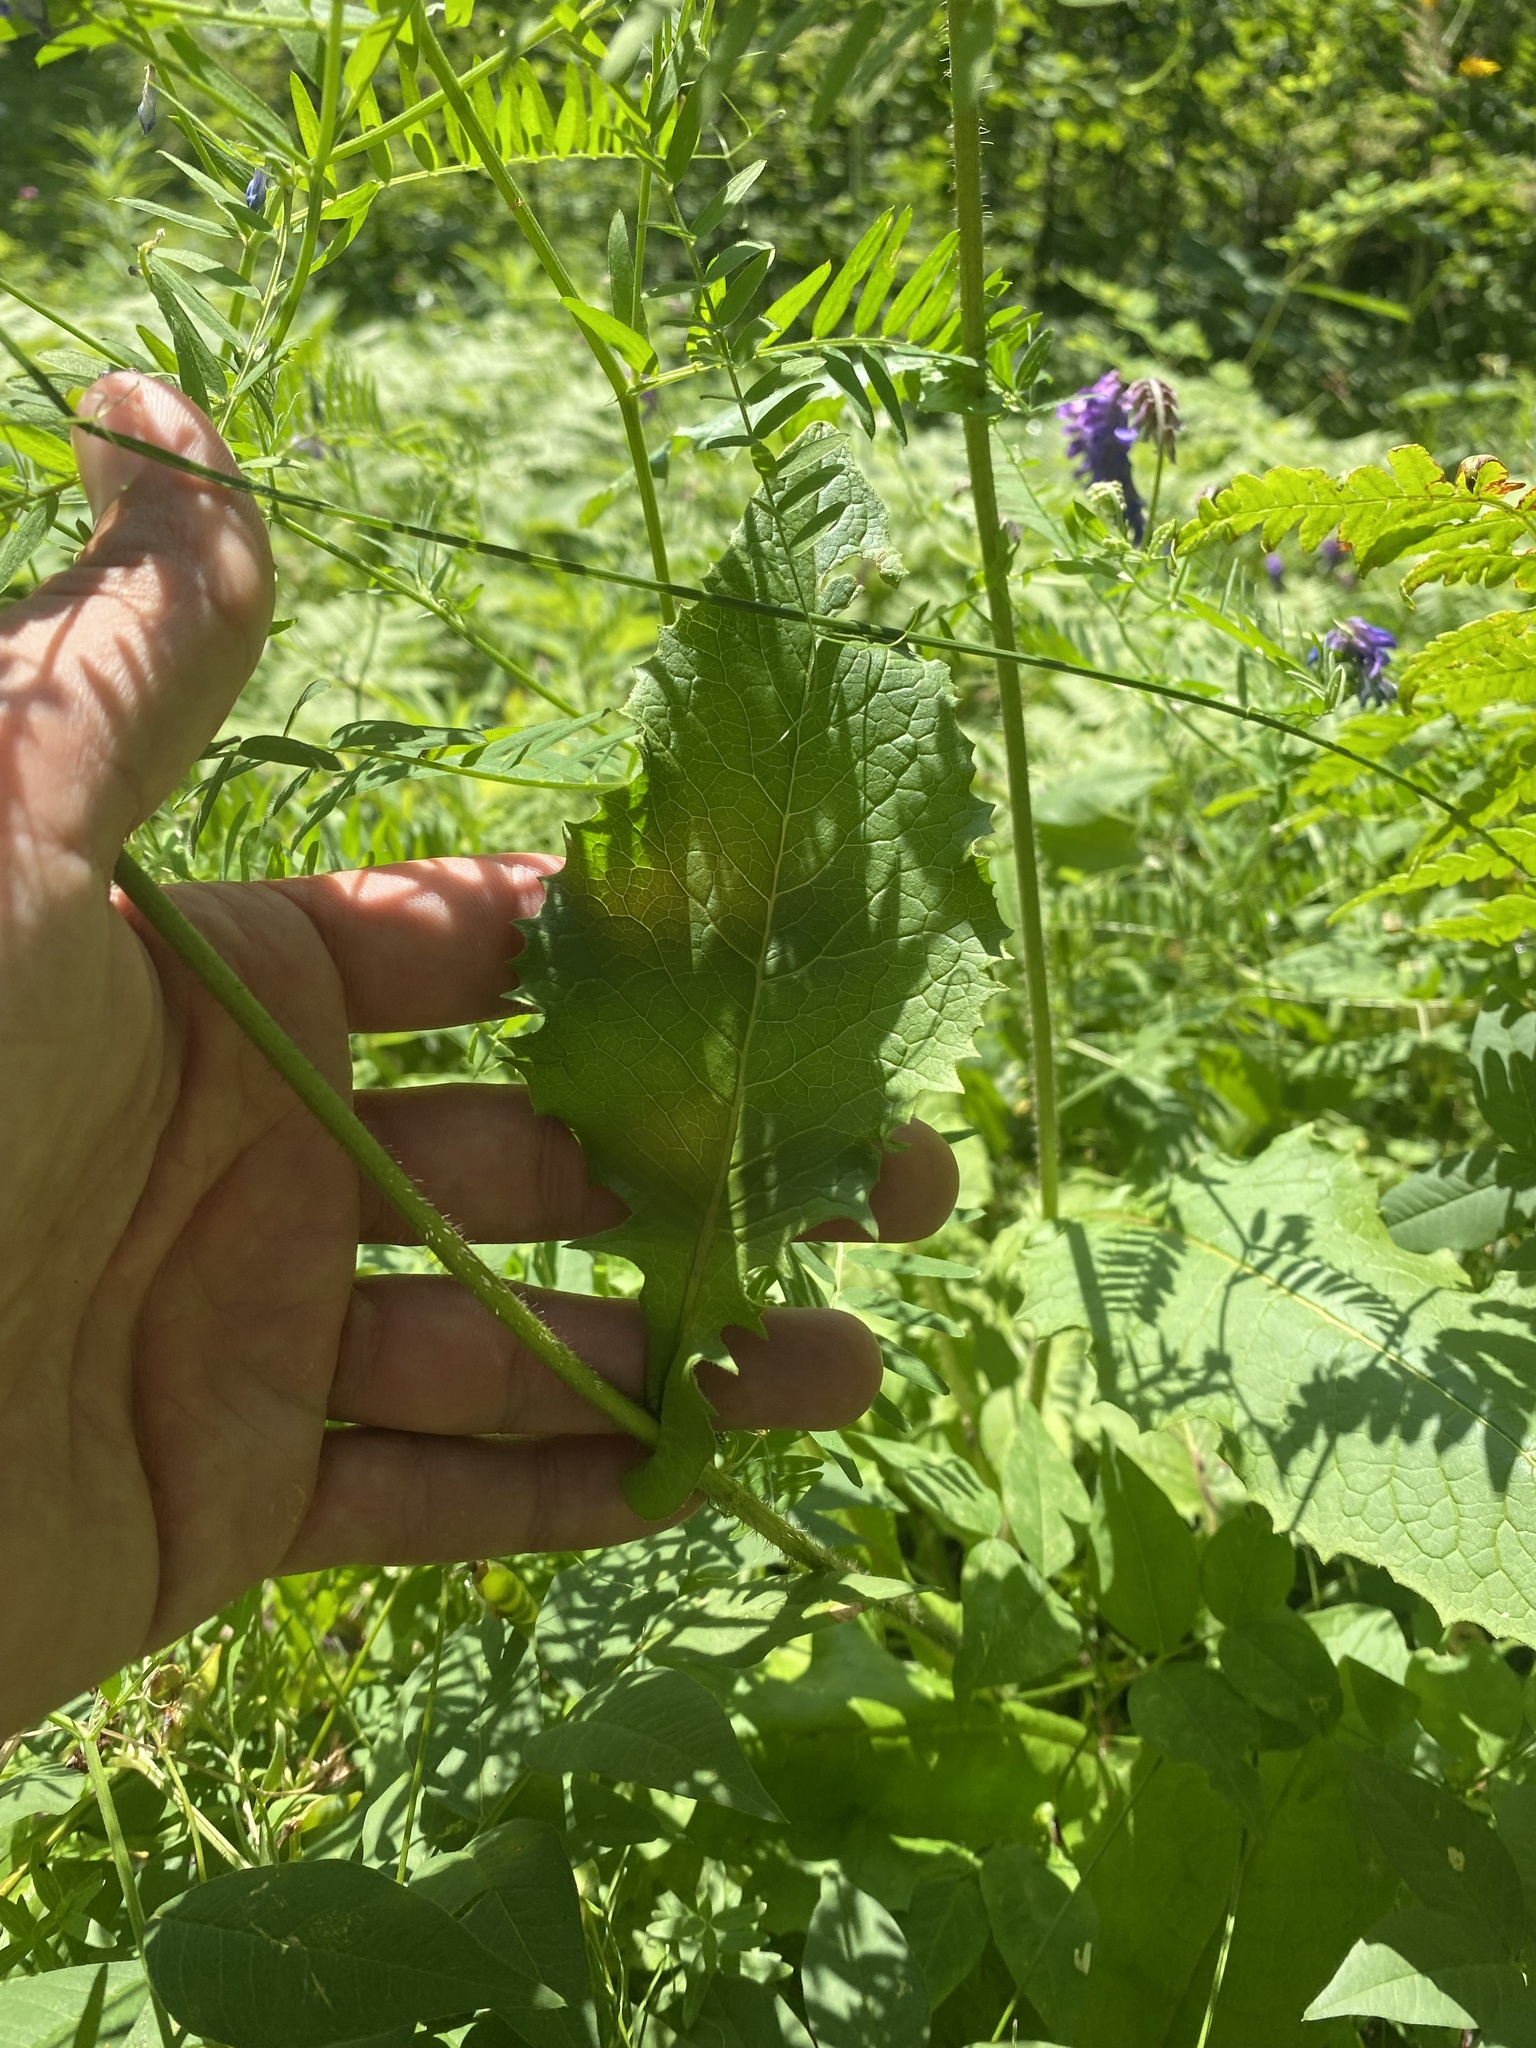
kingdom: Plantae
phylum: Tracheophyta
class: Magnoliopsida
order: Asterales
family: Asteraceae
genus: Crepis
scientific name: Crepis sibirica
